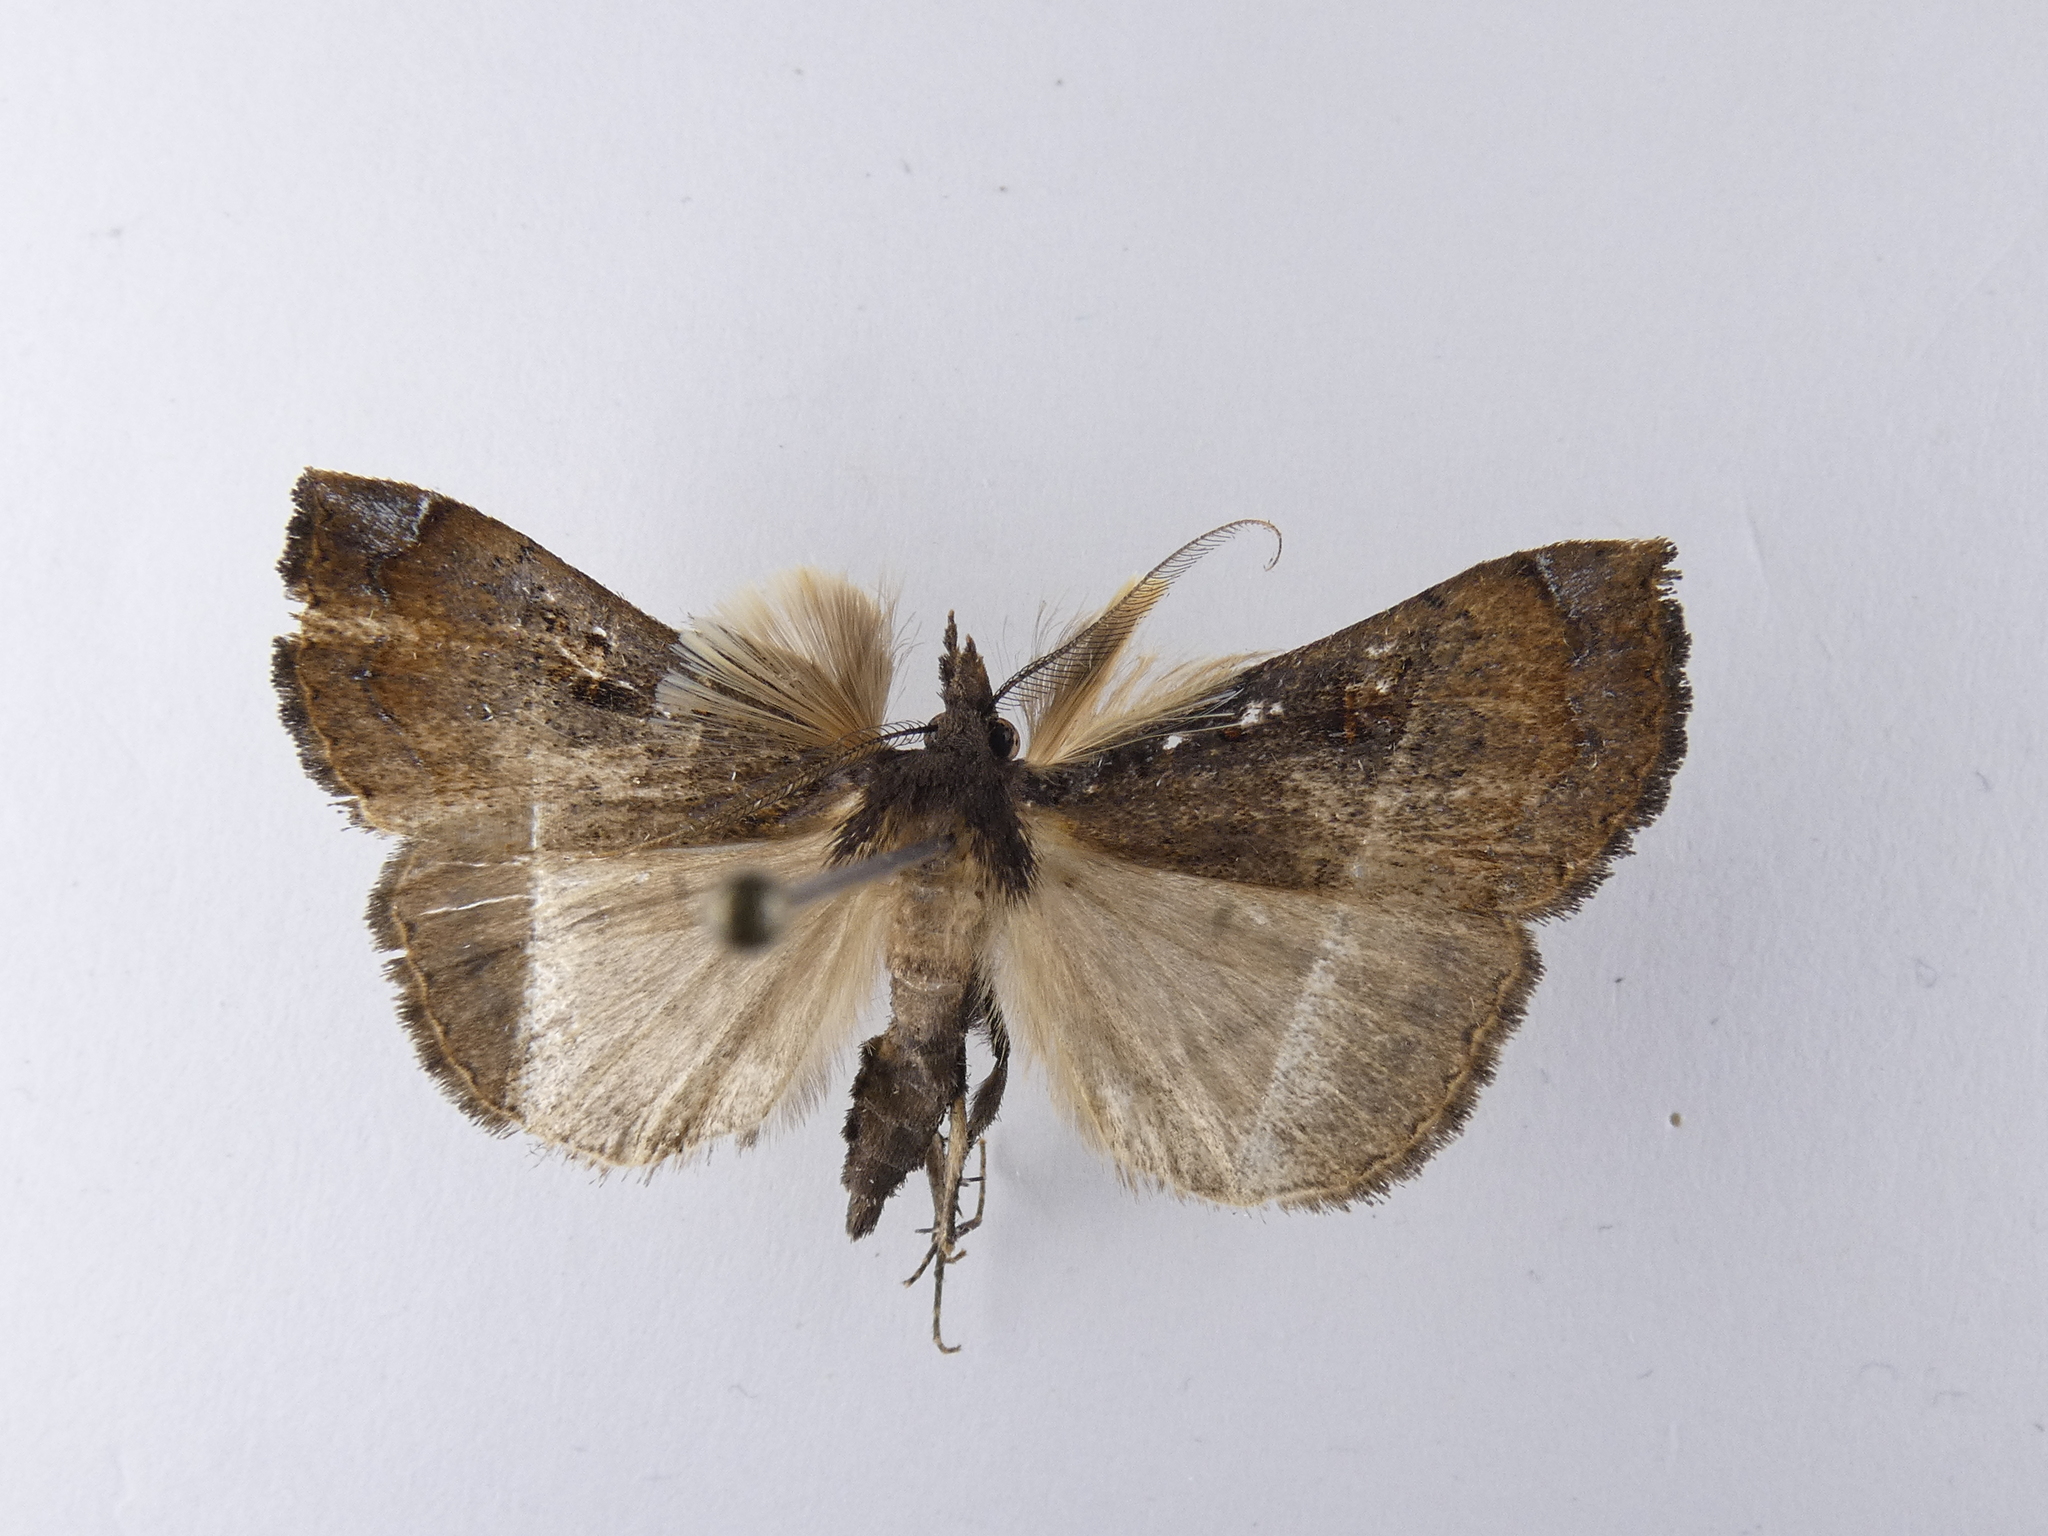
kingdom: Animalia
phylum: Arthropoda
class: Insecta
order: Lepidoptera
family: Erebidae
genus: Rhapsa
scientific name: Rhapsa scotosialis
